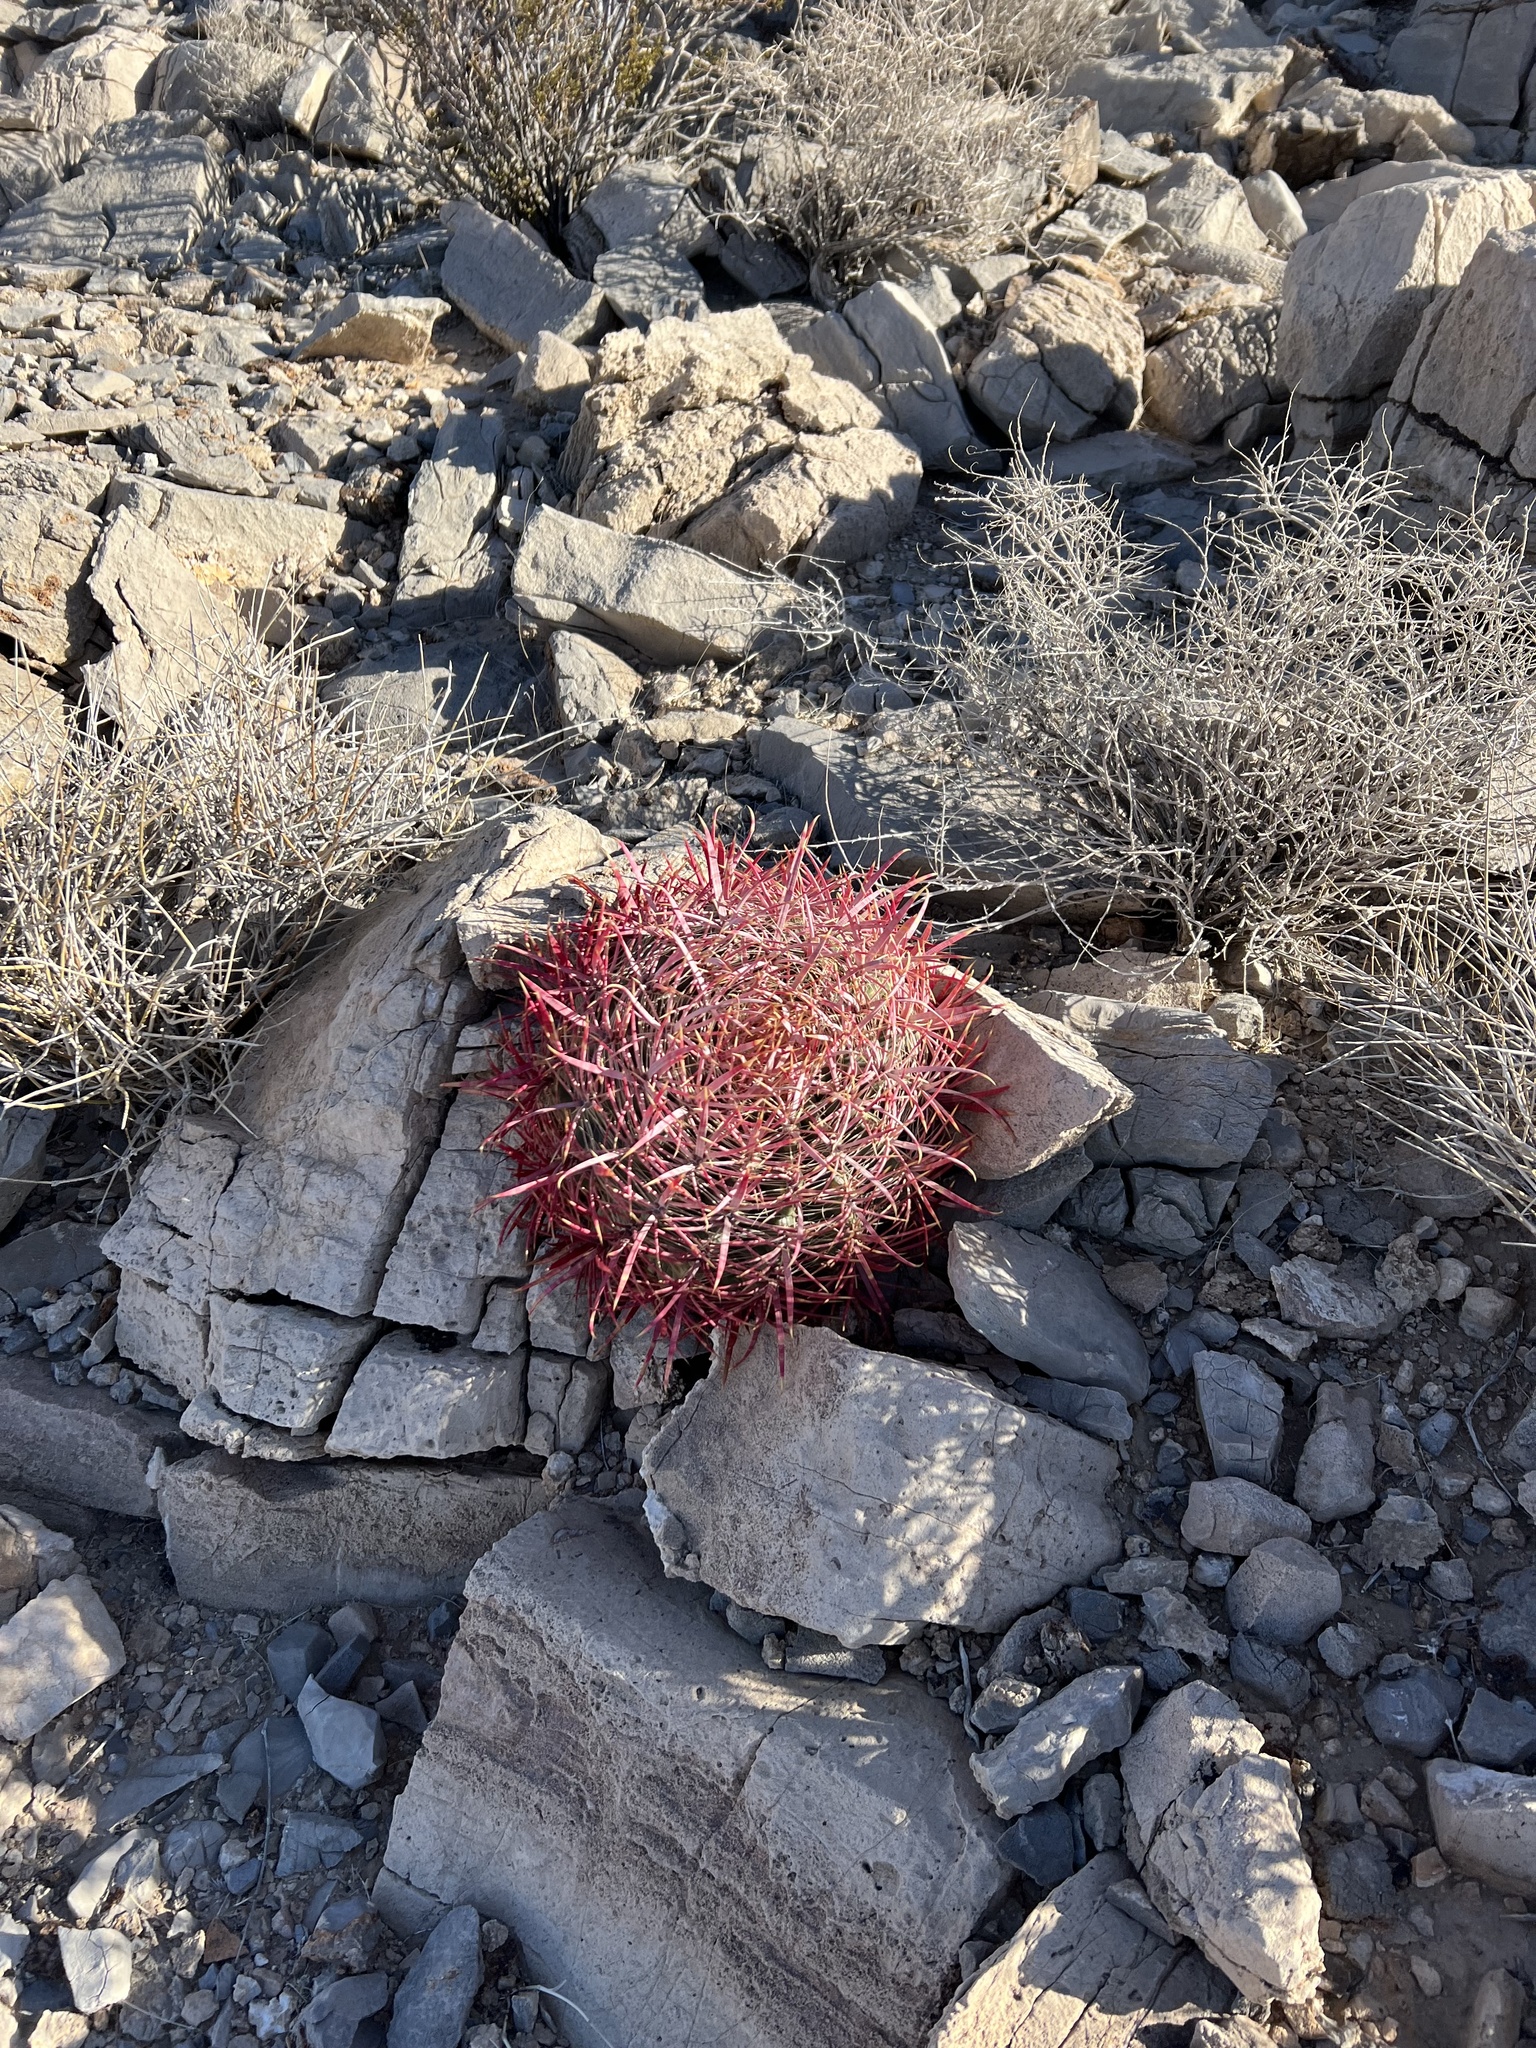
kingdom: Plantae
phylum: Tracheophyta
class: Magnoliopsida
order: Caryophyllales
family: Cactaceae
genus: Ferocactus
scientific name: Ferocactus cylindraceus
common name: California barrel cactus
